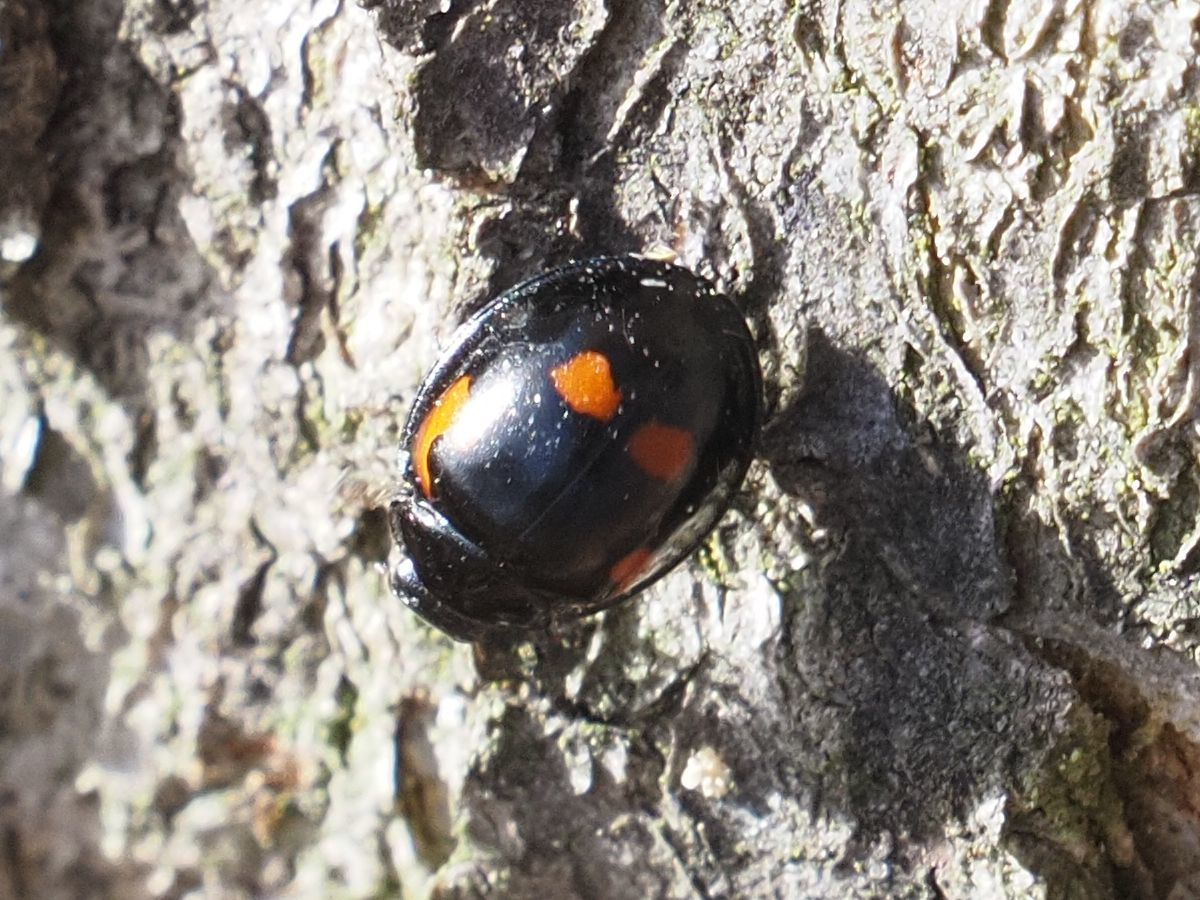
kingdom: Animalia
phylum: Arthropoda
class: Insecta
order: Coleoptera
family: Coccinellidae
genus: Brumus
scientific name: Brumus quadripustulatus
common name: Ladybird beetle
